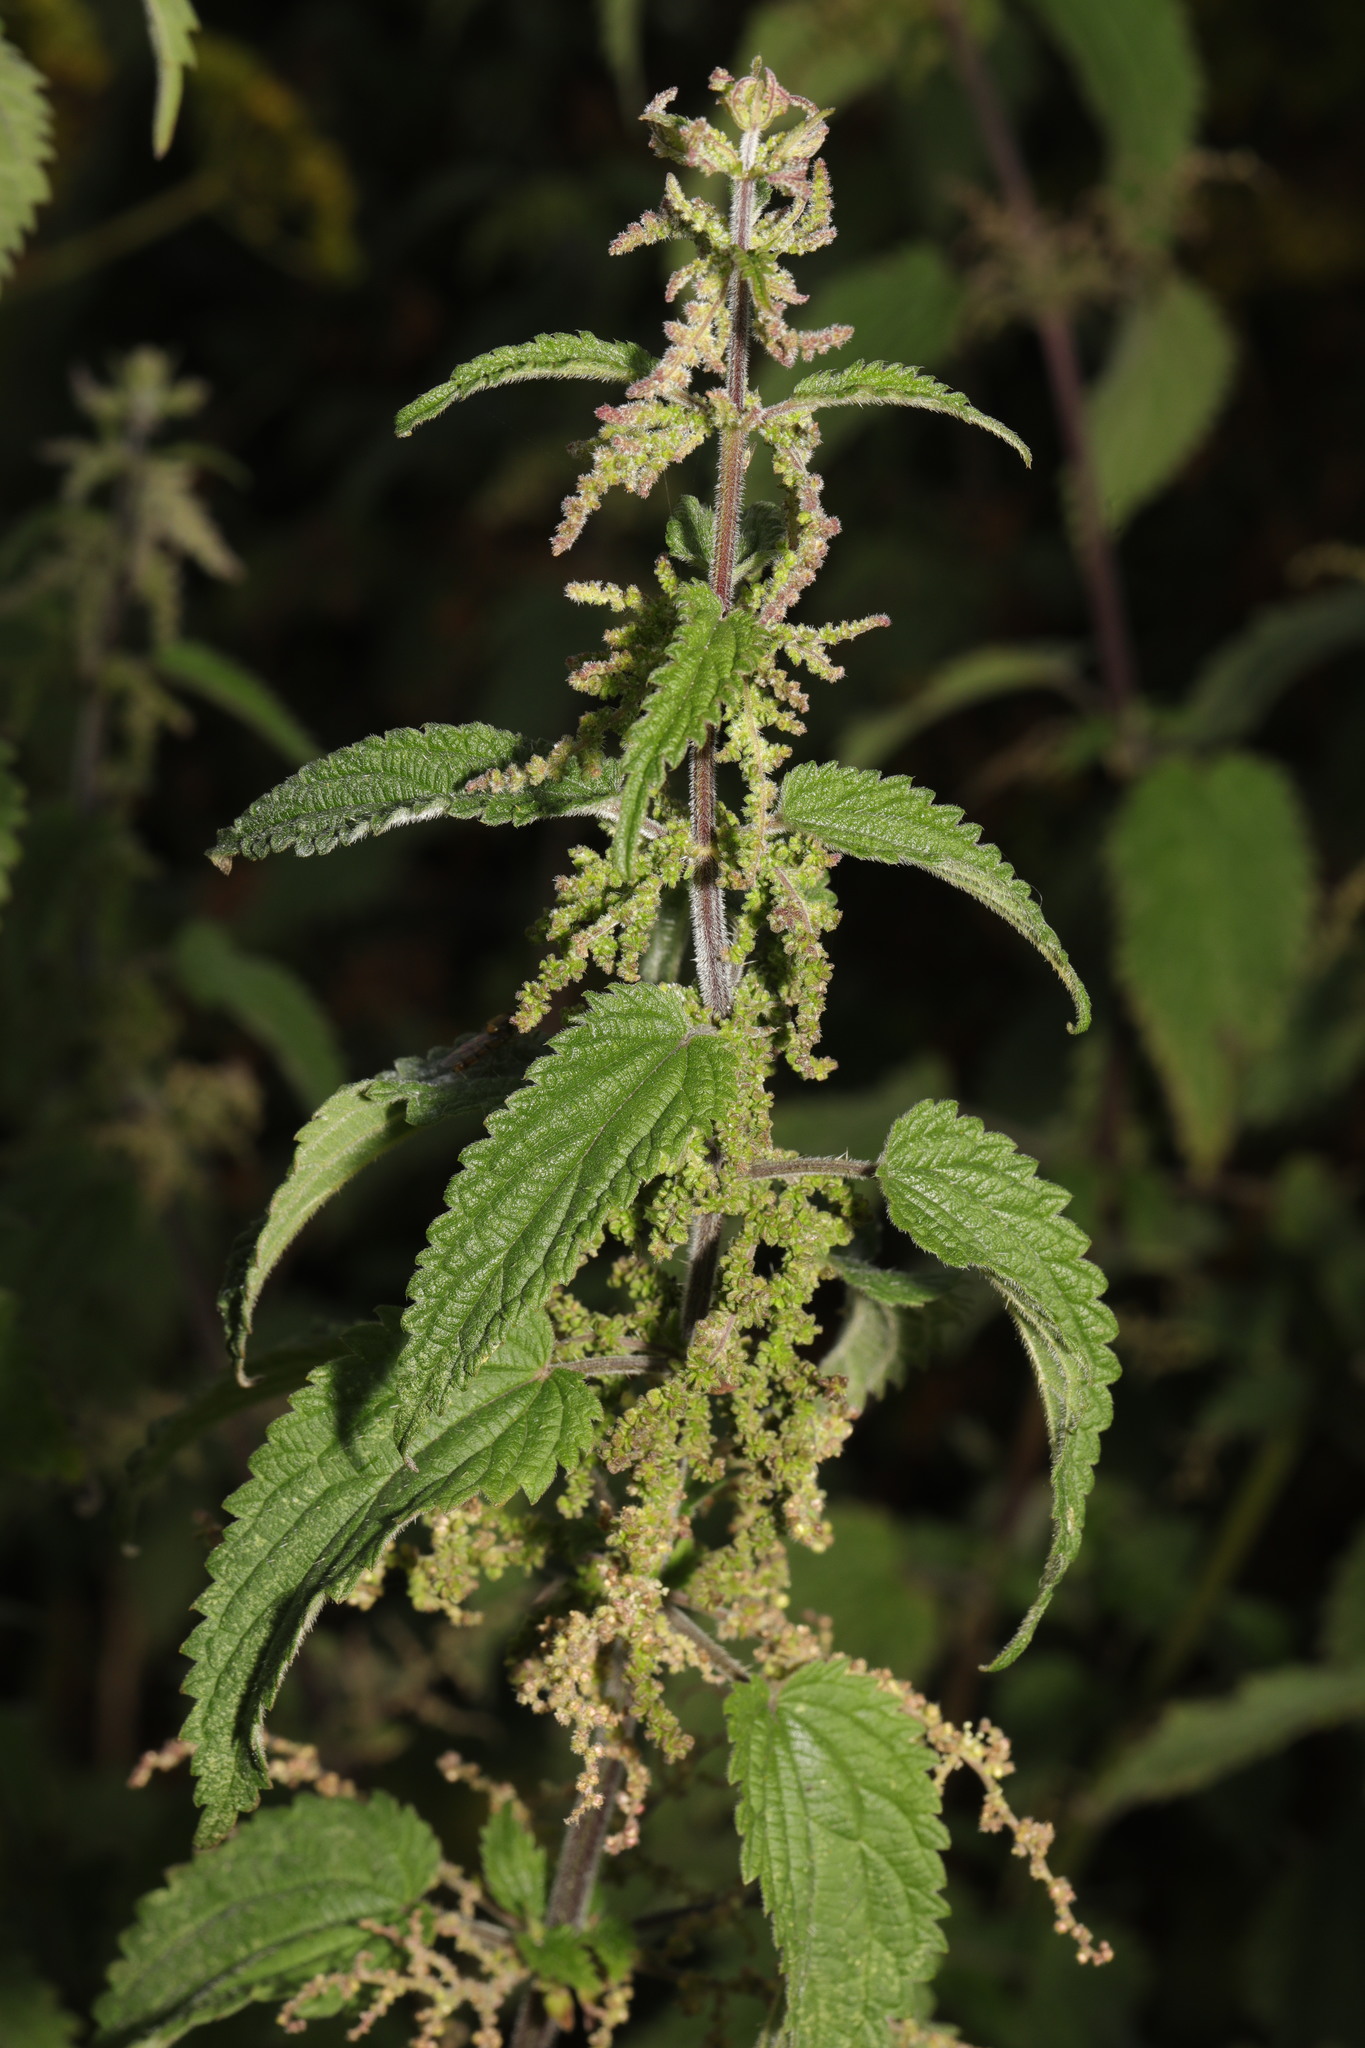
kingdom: Plantae
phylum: Tracheophyta
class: Magnoliopsida
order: Rosales
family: Urticaceae
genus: Urtica
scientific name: Urtica dioica
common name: Common nettle
